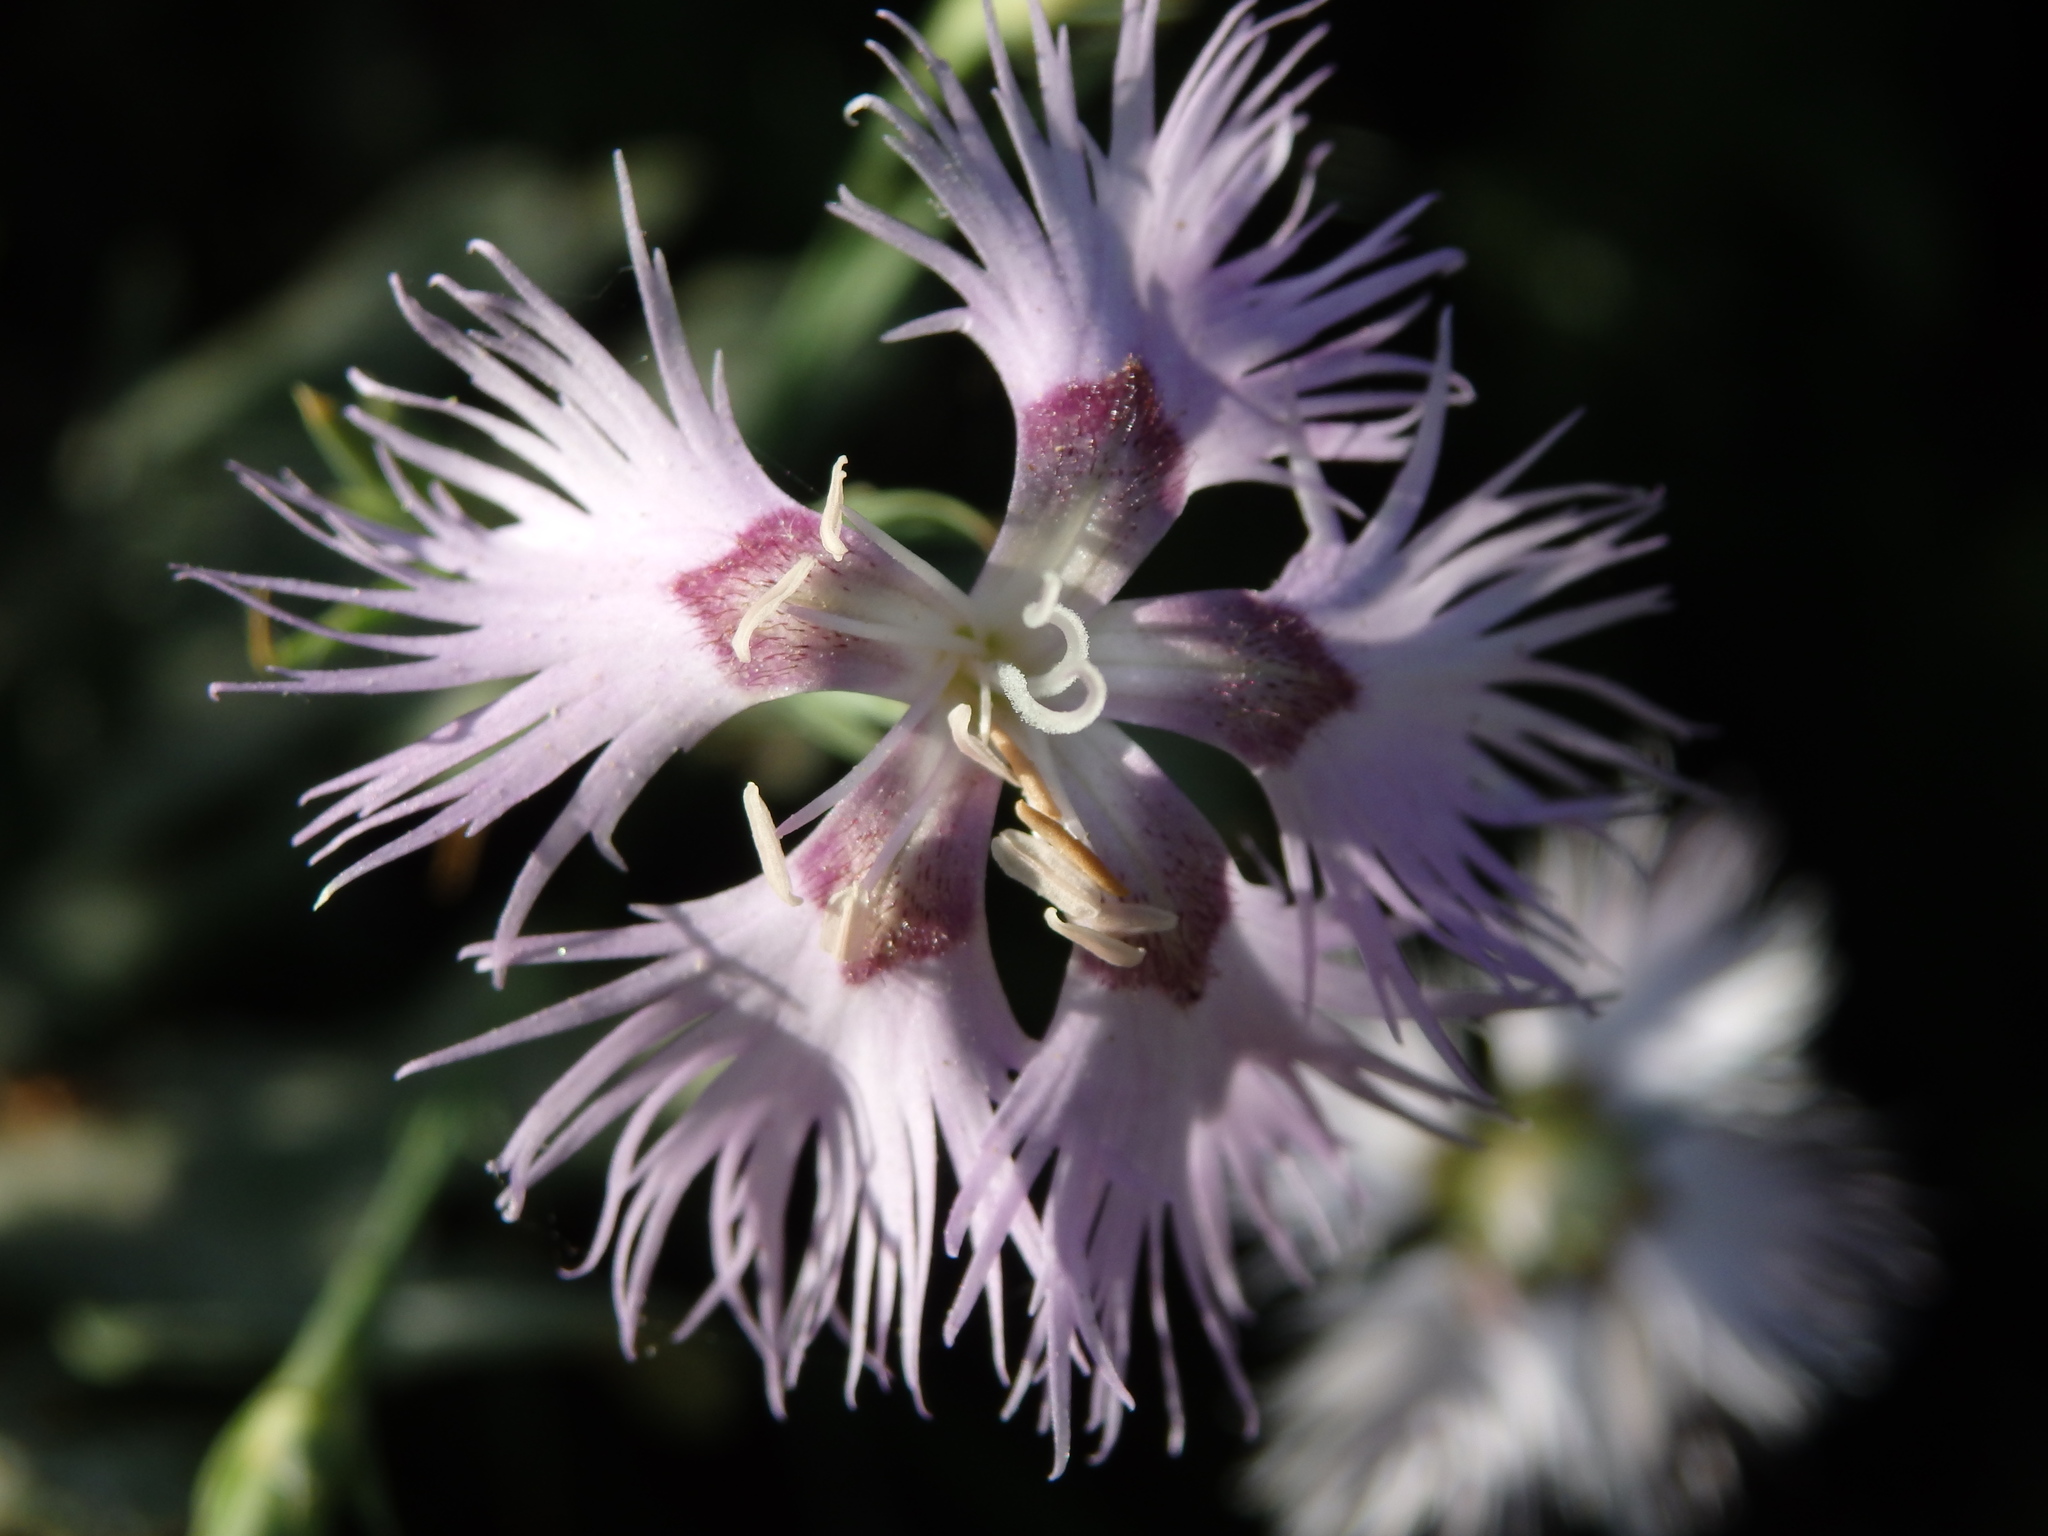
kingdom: Plantae
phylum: Tracheophyta
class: Magnoliopsida
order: Caryophyllales
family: Caryophyllaceae
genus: Dianthus
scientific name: Dianthus hyssopifolius
